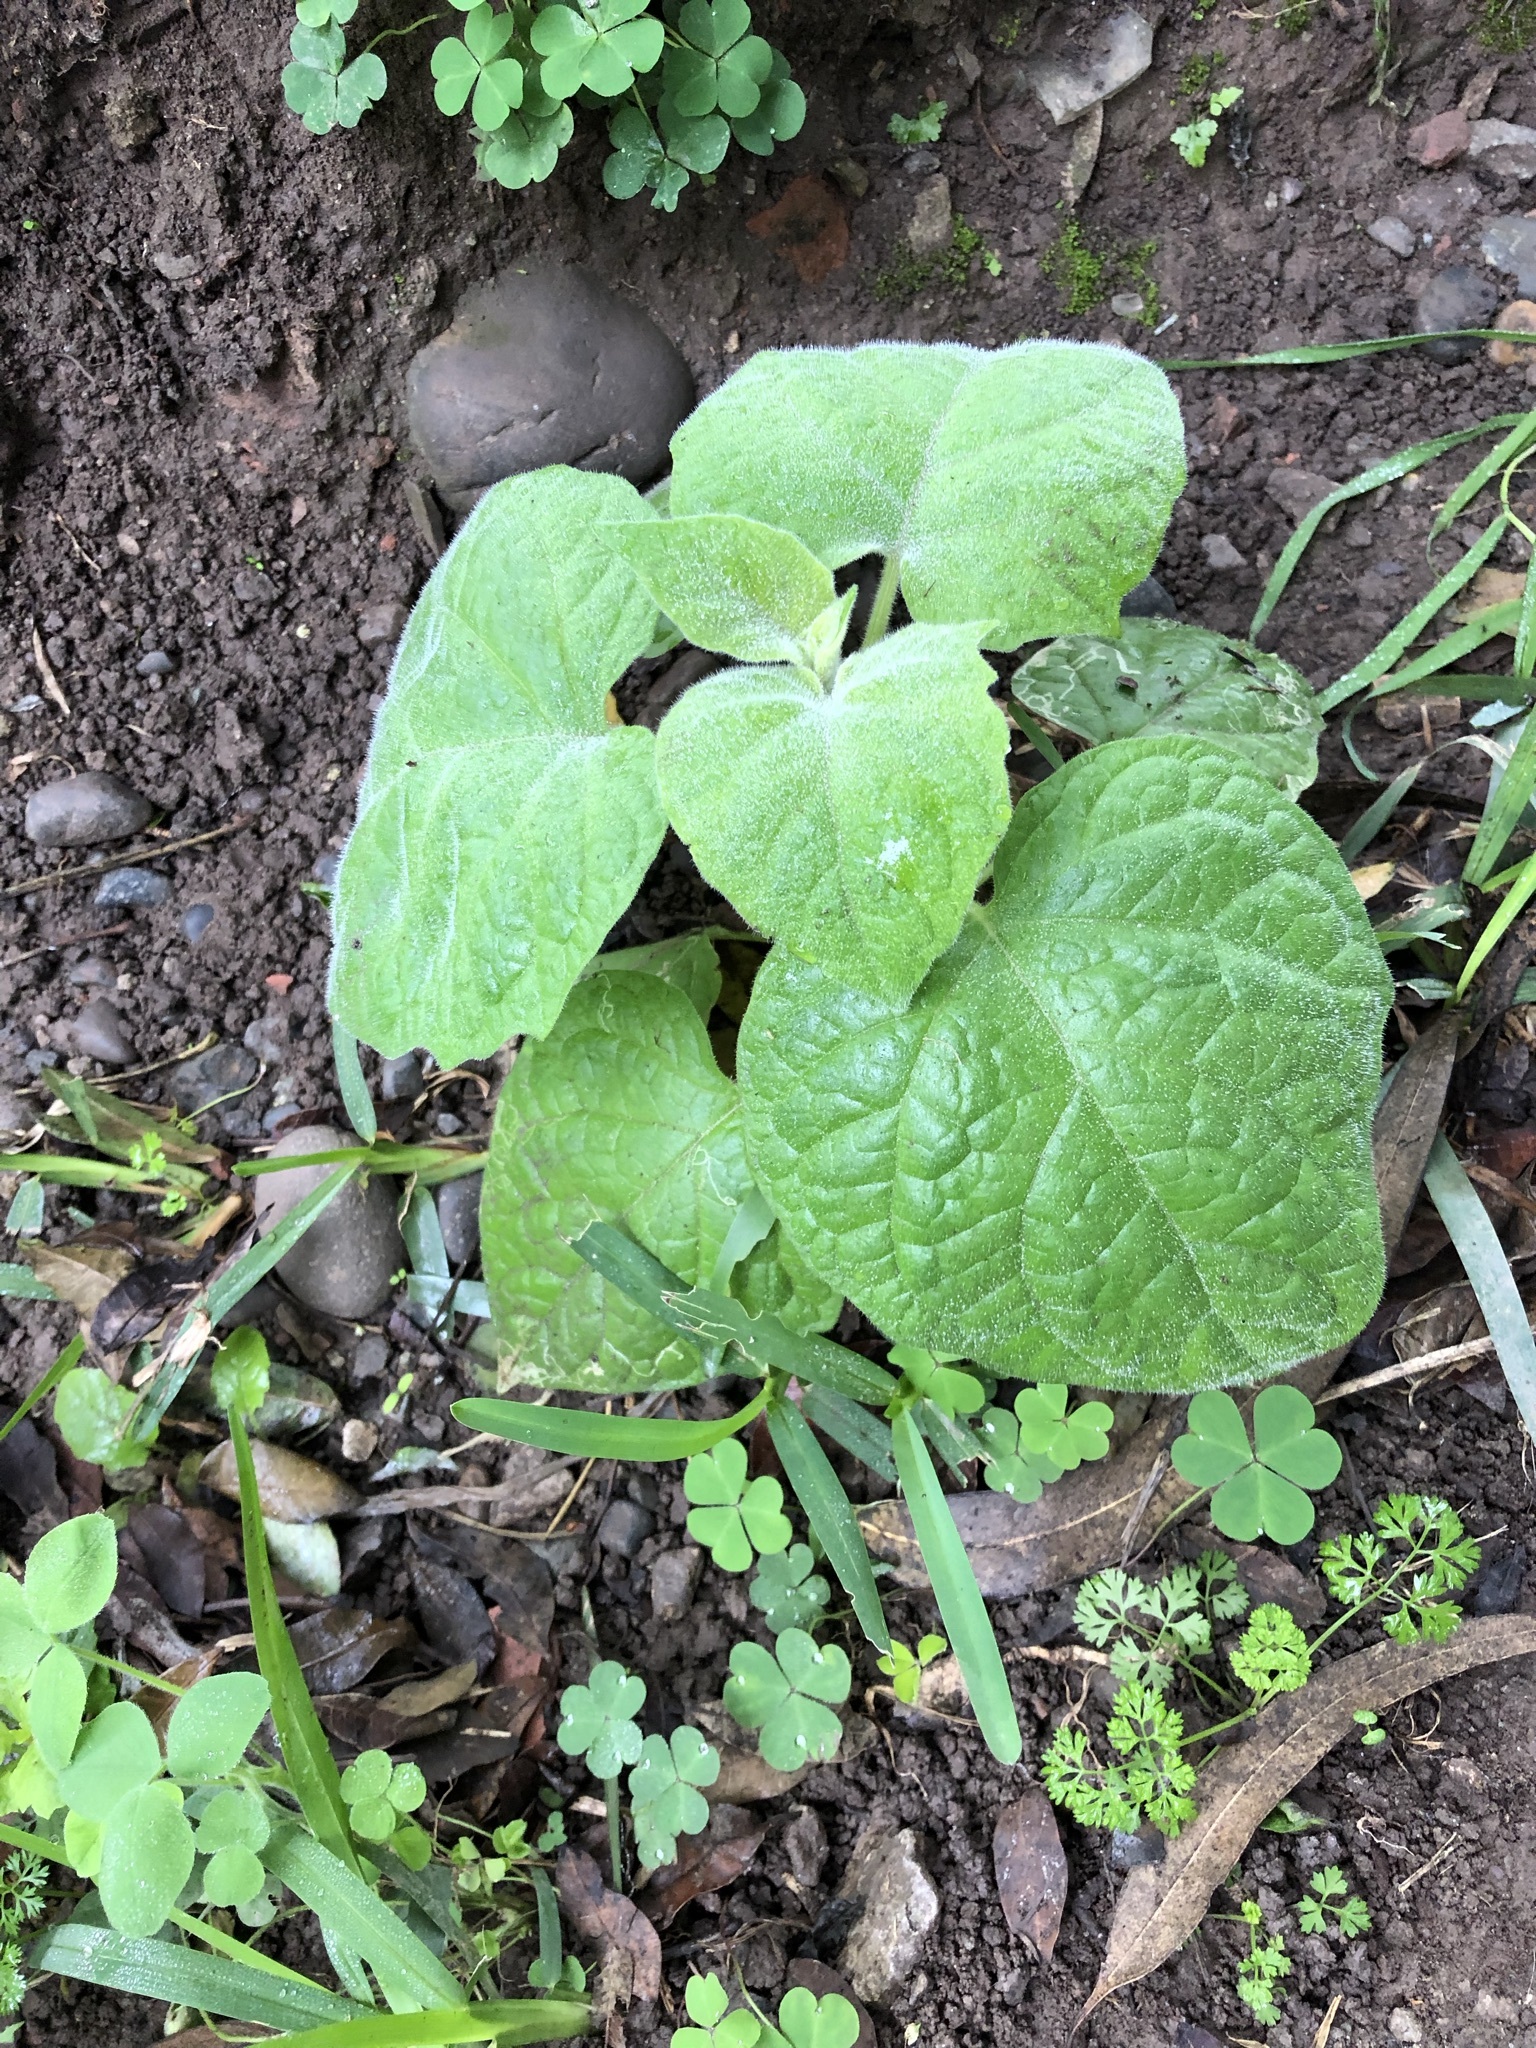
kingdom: Plantae
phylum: Tracheophyta
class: Magnoliopsida
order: Solanales
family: Solanaceae
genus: Physalis
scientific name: Physalis peruviana
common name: Cape-gooseberry
